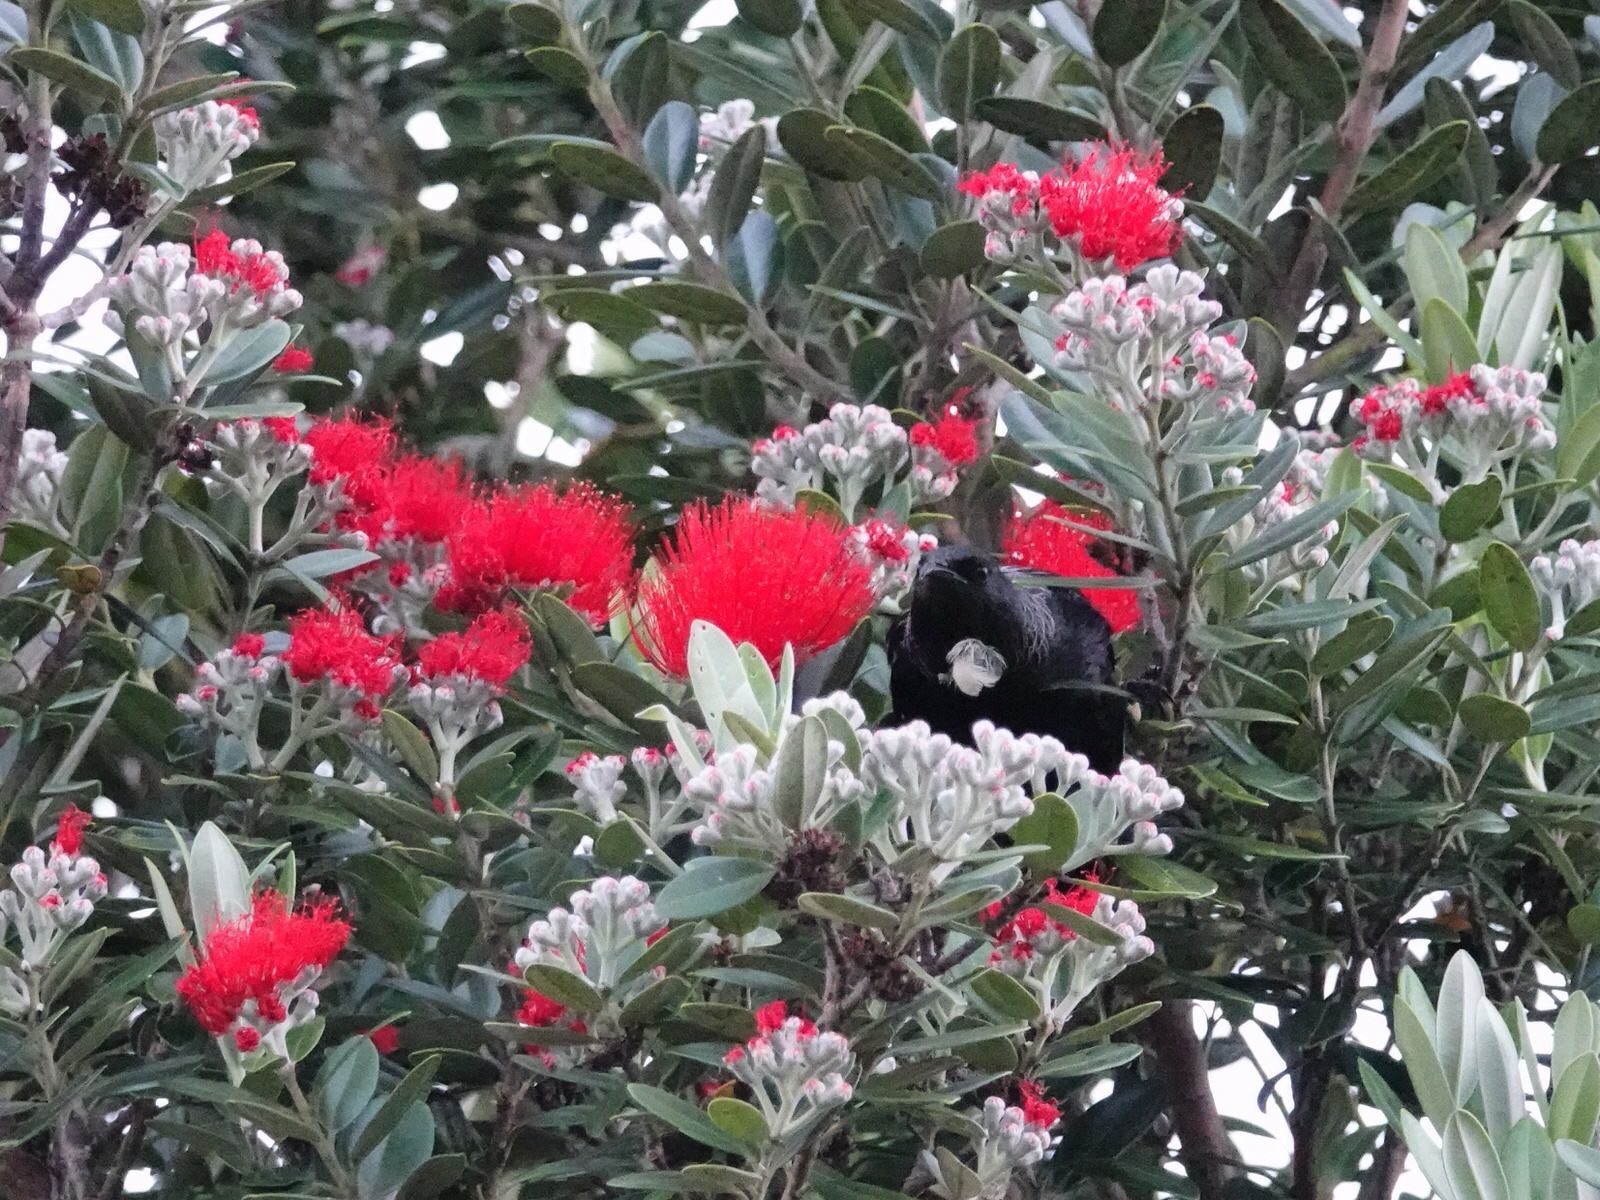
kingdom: Animalia
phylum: Chordata
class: Aves
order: Passeriformes
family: Meliphagidae
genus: Prosthemadera
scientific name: Prosthemadera novaeseelandiae
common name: Tui
